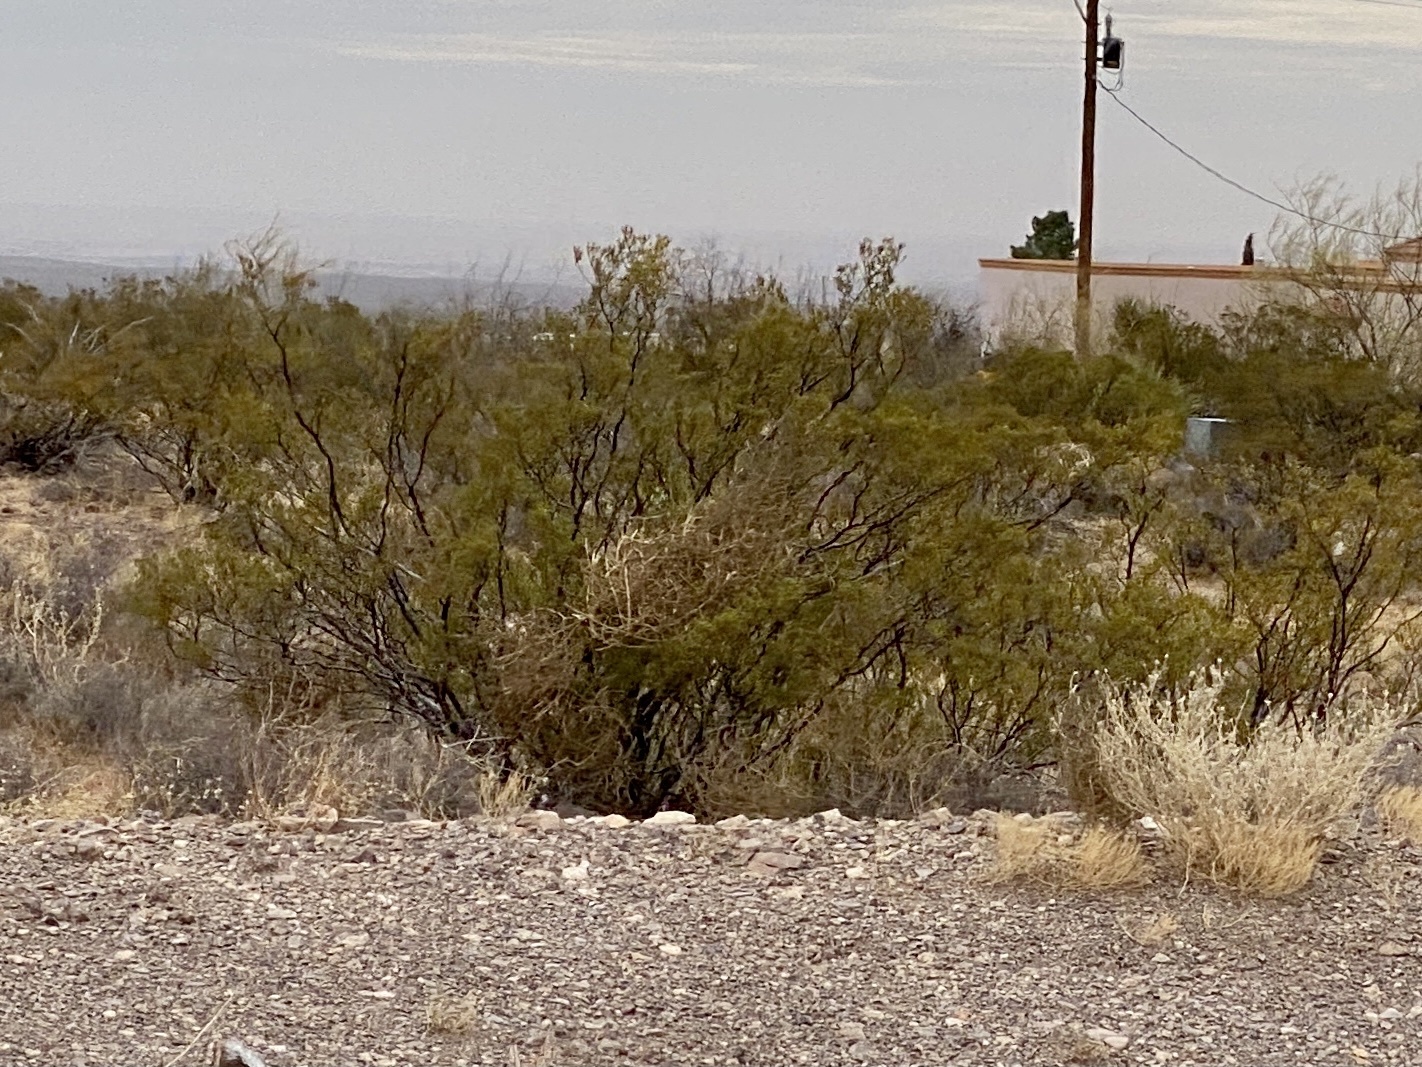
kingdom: Plantae
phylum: Tracheophyta
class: Magnoliopsida
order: Zygophyllales
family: Zygophyllaceae
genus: Larrea
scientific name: Larrea tridentata
